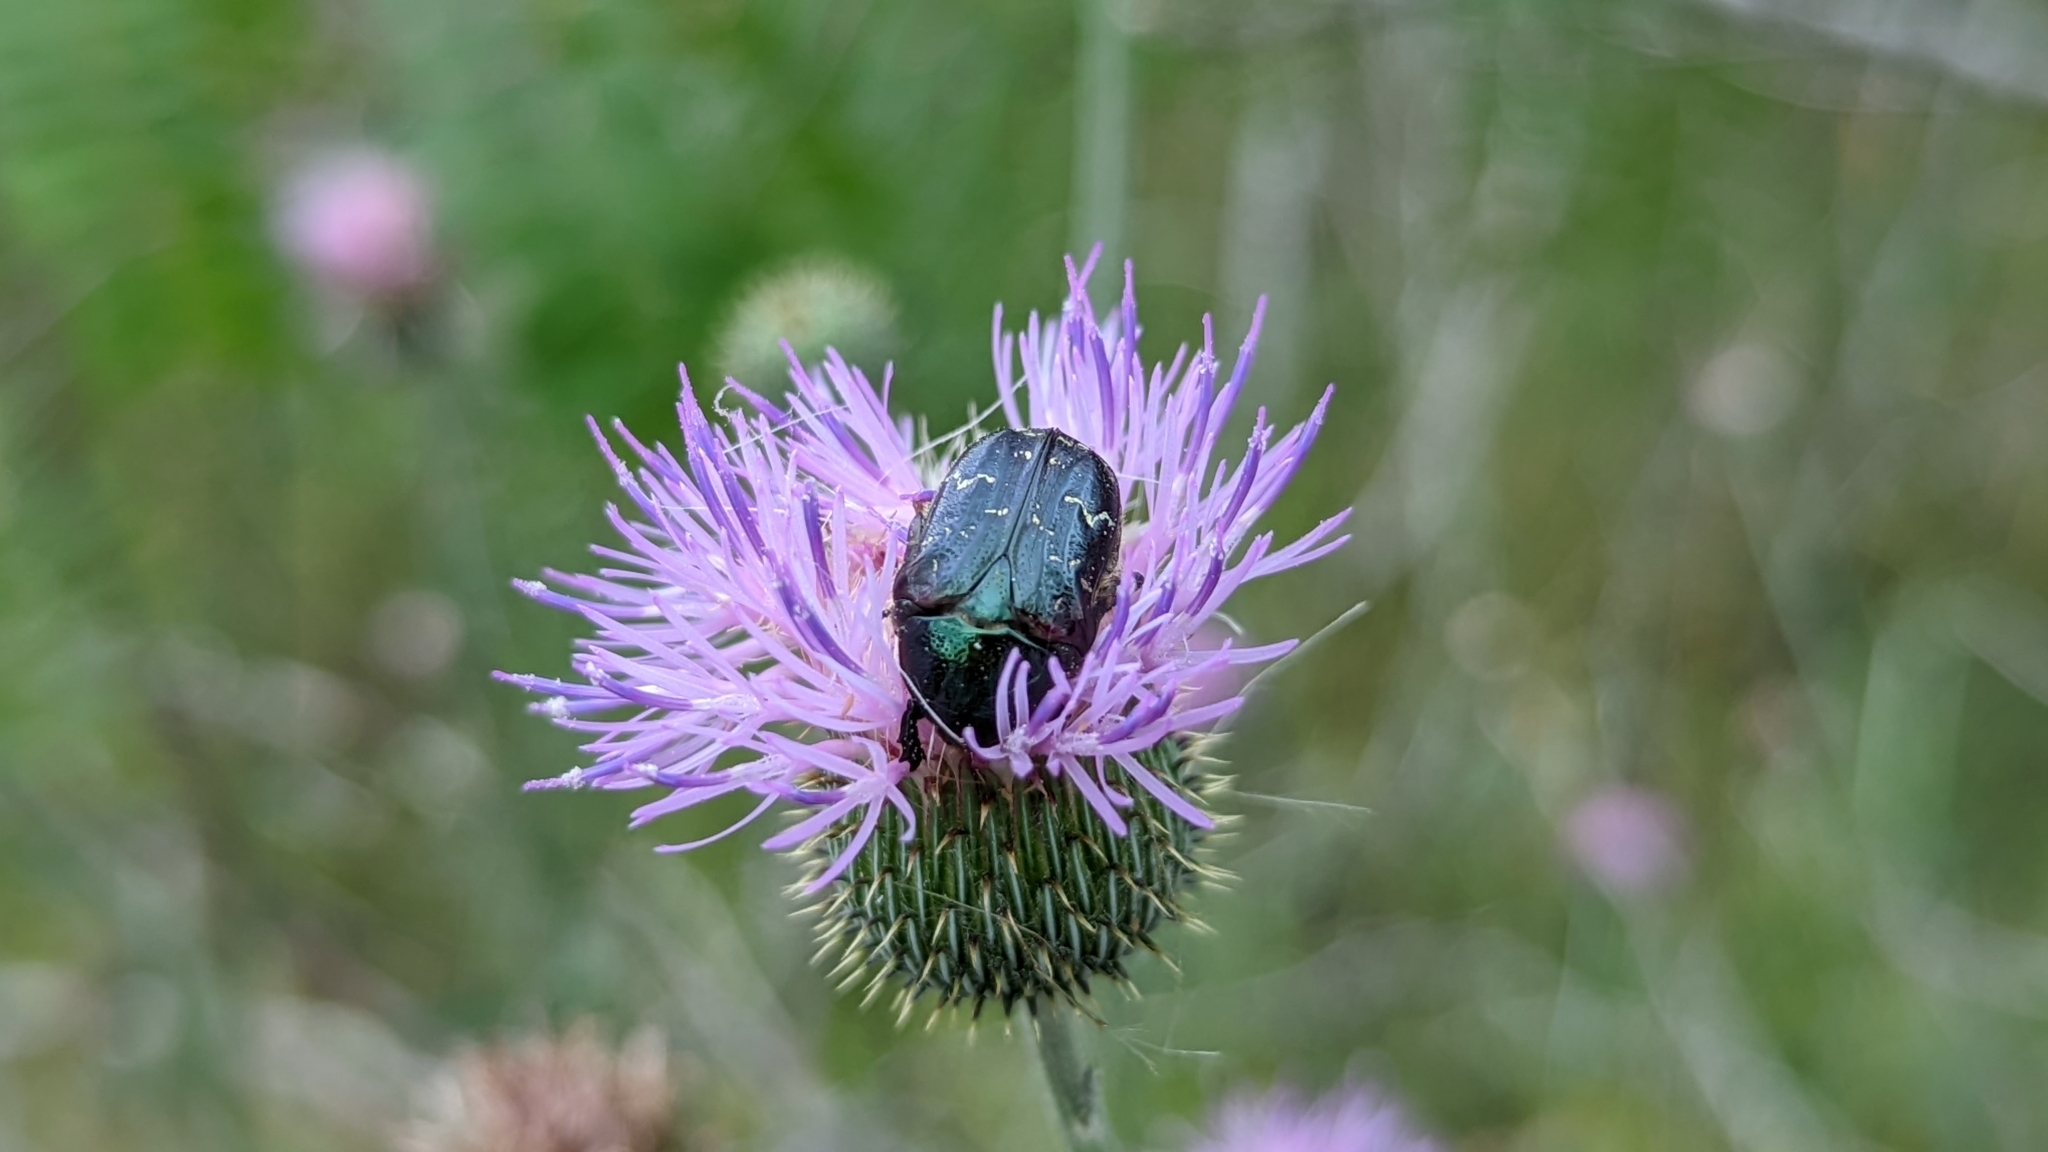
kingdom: Animalia
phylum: Arthropoda
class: Insecta
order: Coleoptera
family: Scarabaeidae
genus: Euphoria
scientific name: Euphoria sepulcralis
